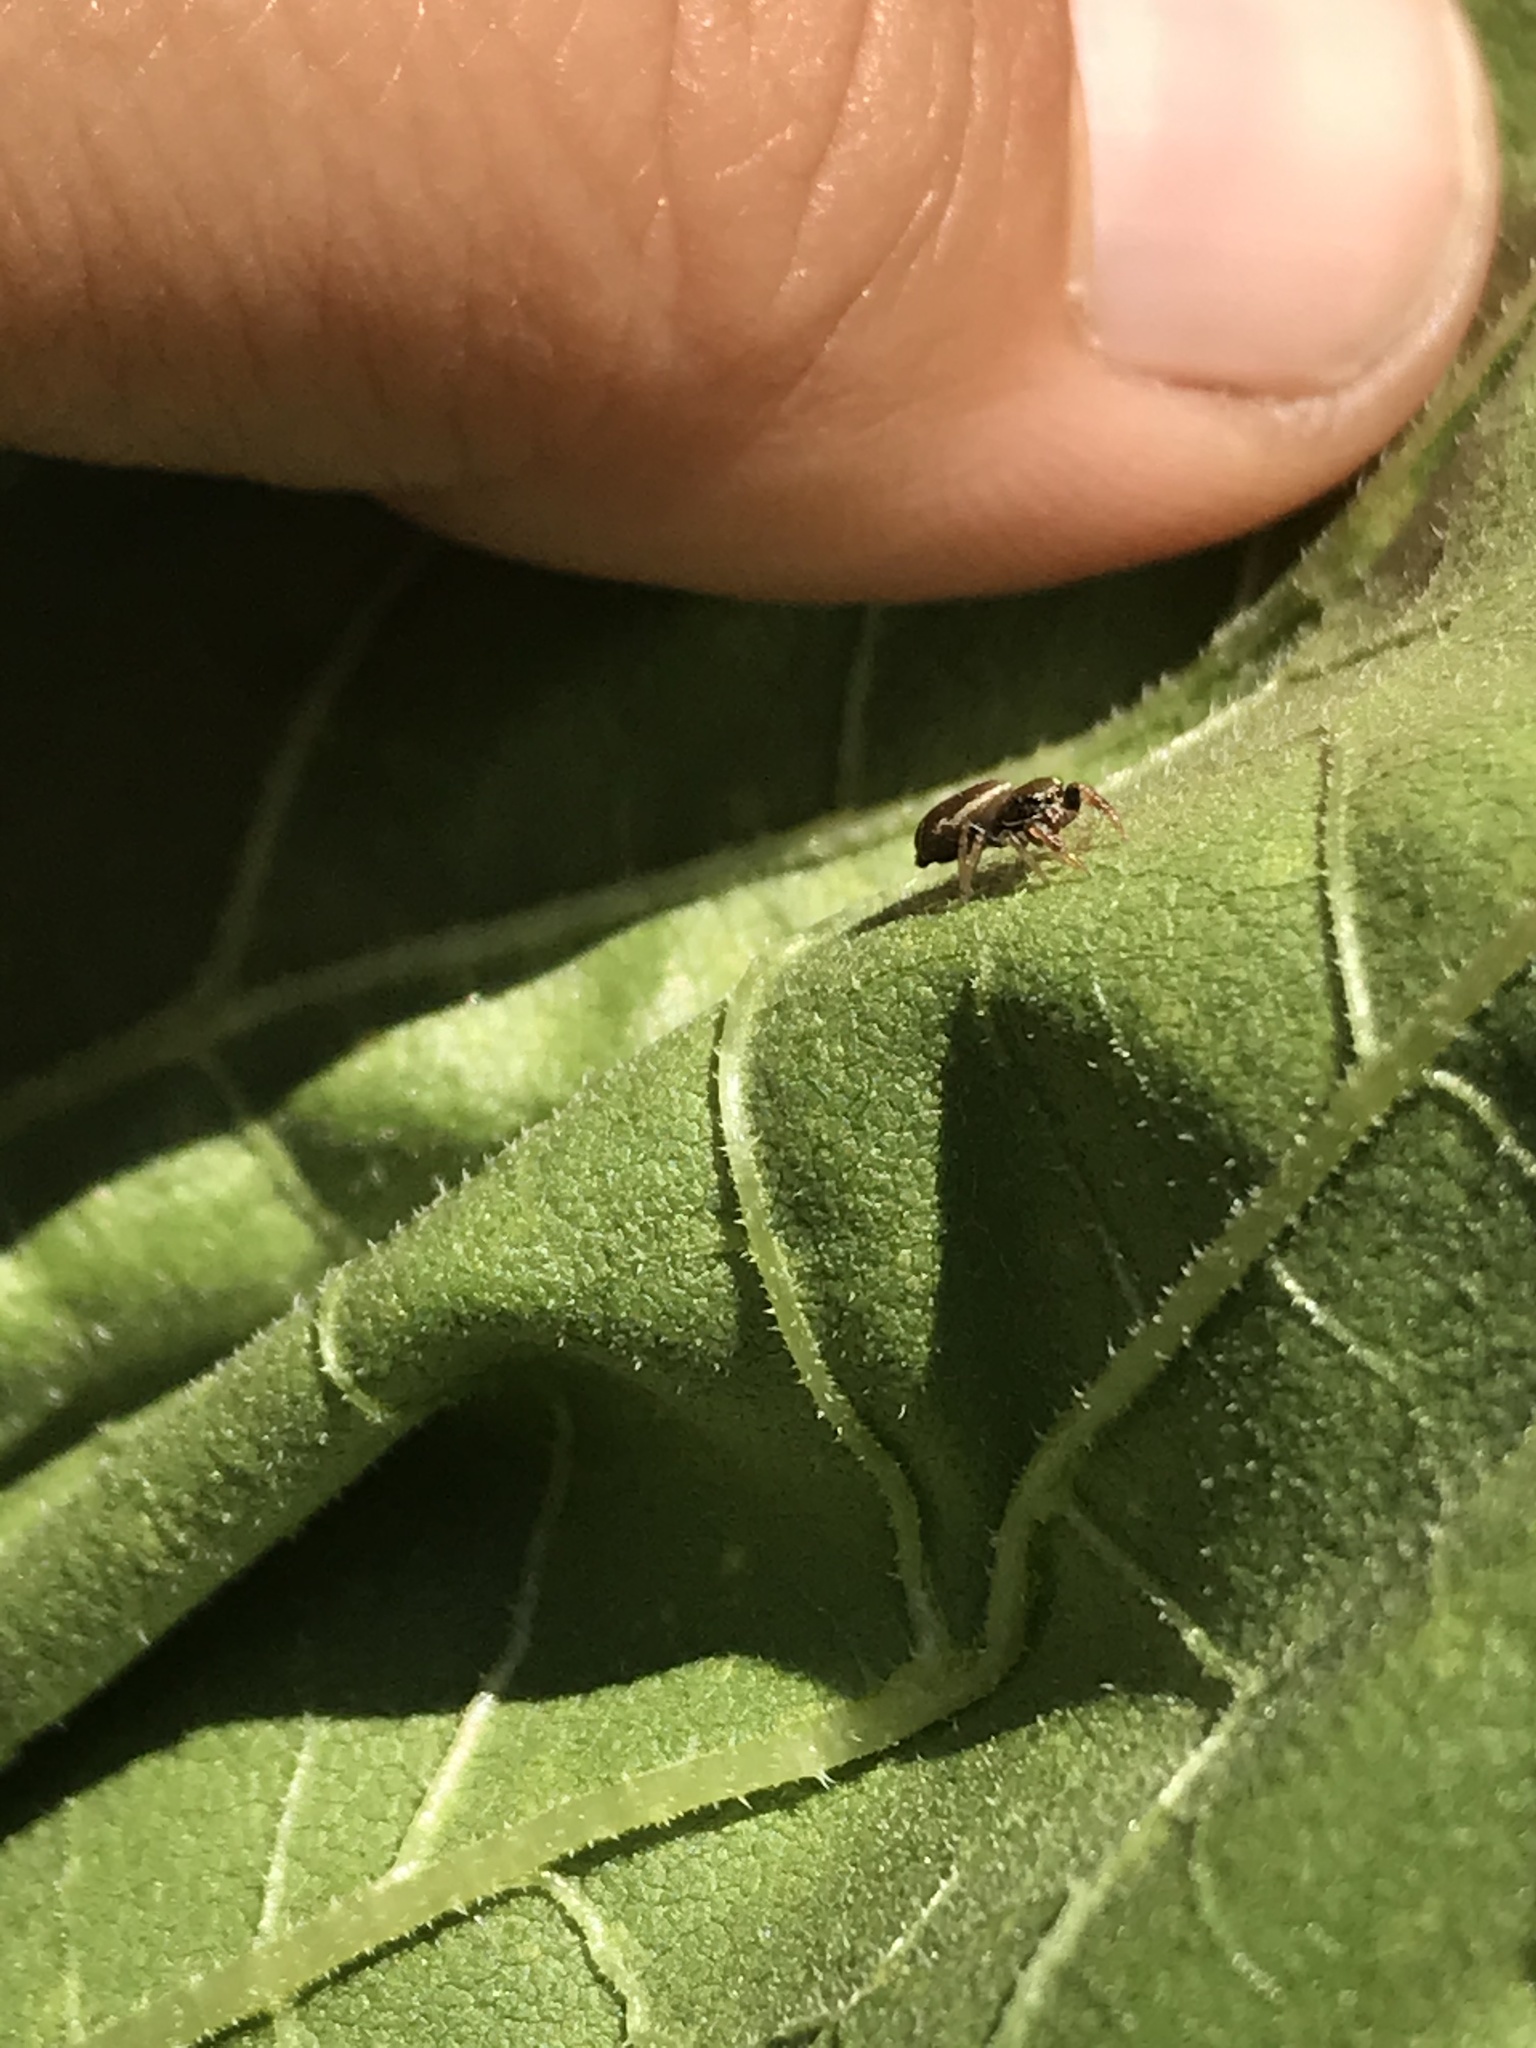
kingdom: Animalia
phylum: Arthropoda
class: Arachnida
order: Araneae
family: Salticidae
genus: Sassacus
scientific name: Sassacus vitis
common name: Jumping spiders
